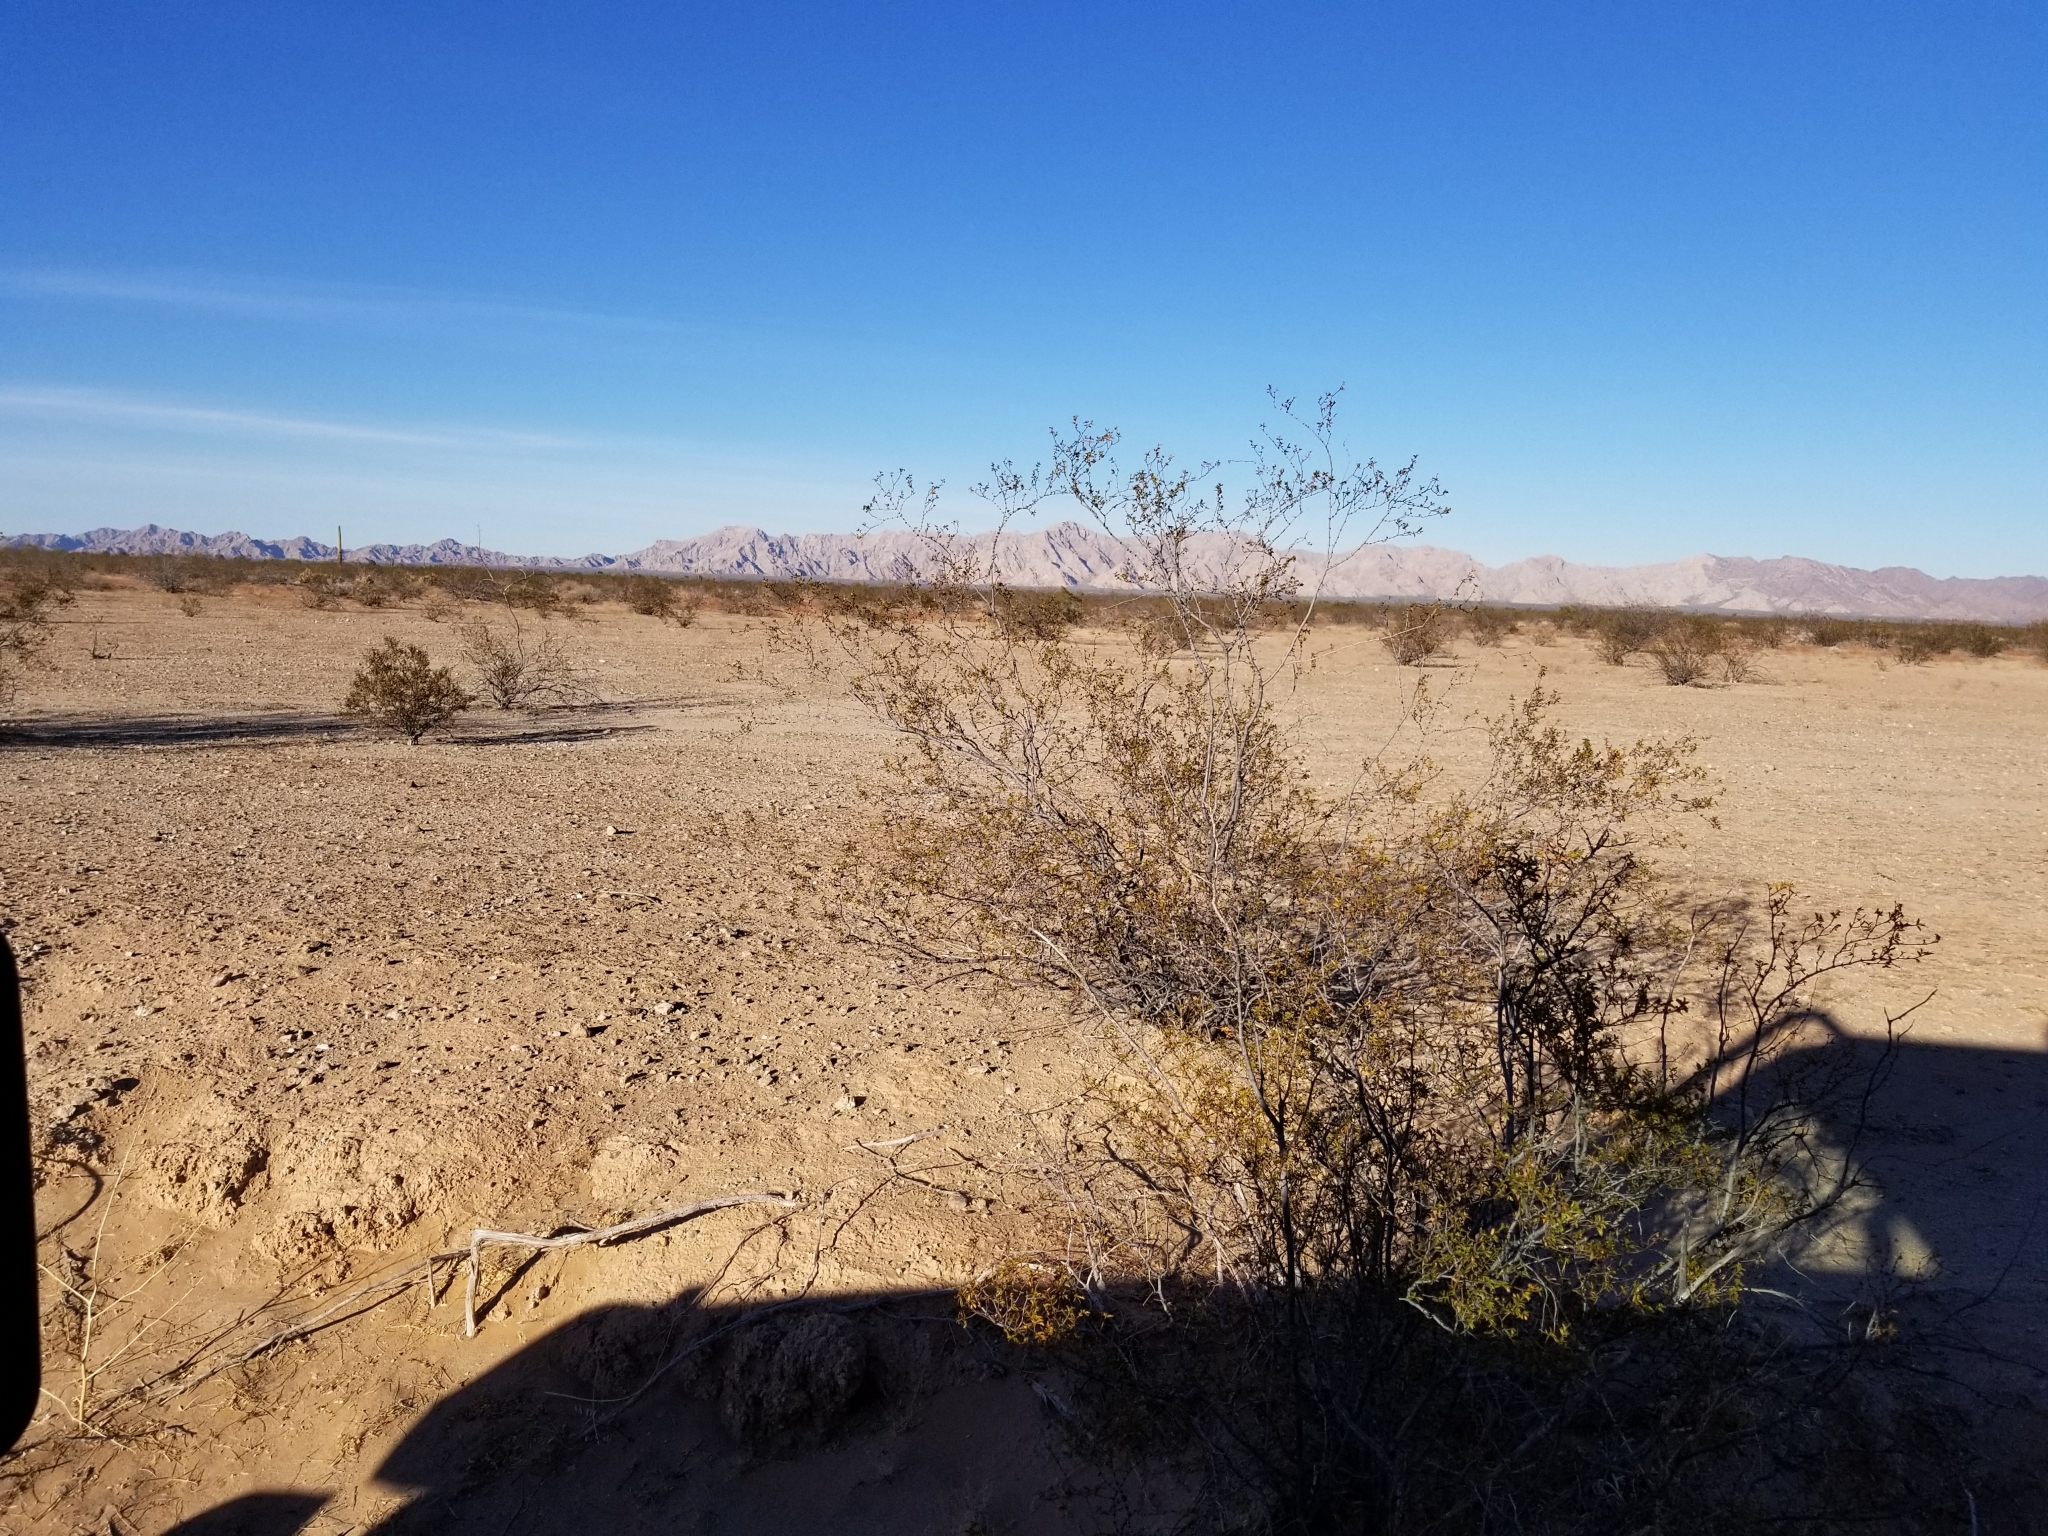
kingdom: Plantae
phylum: Tracheophyta
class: Magnoliopsida
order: Zygophyllales
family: Zygophyllaceae
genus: Larrea
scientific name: Larrea tridentata
